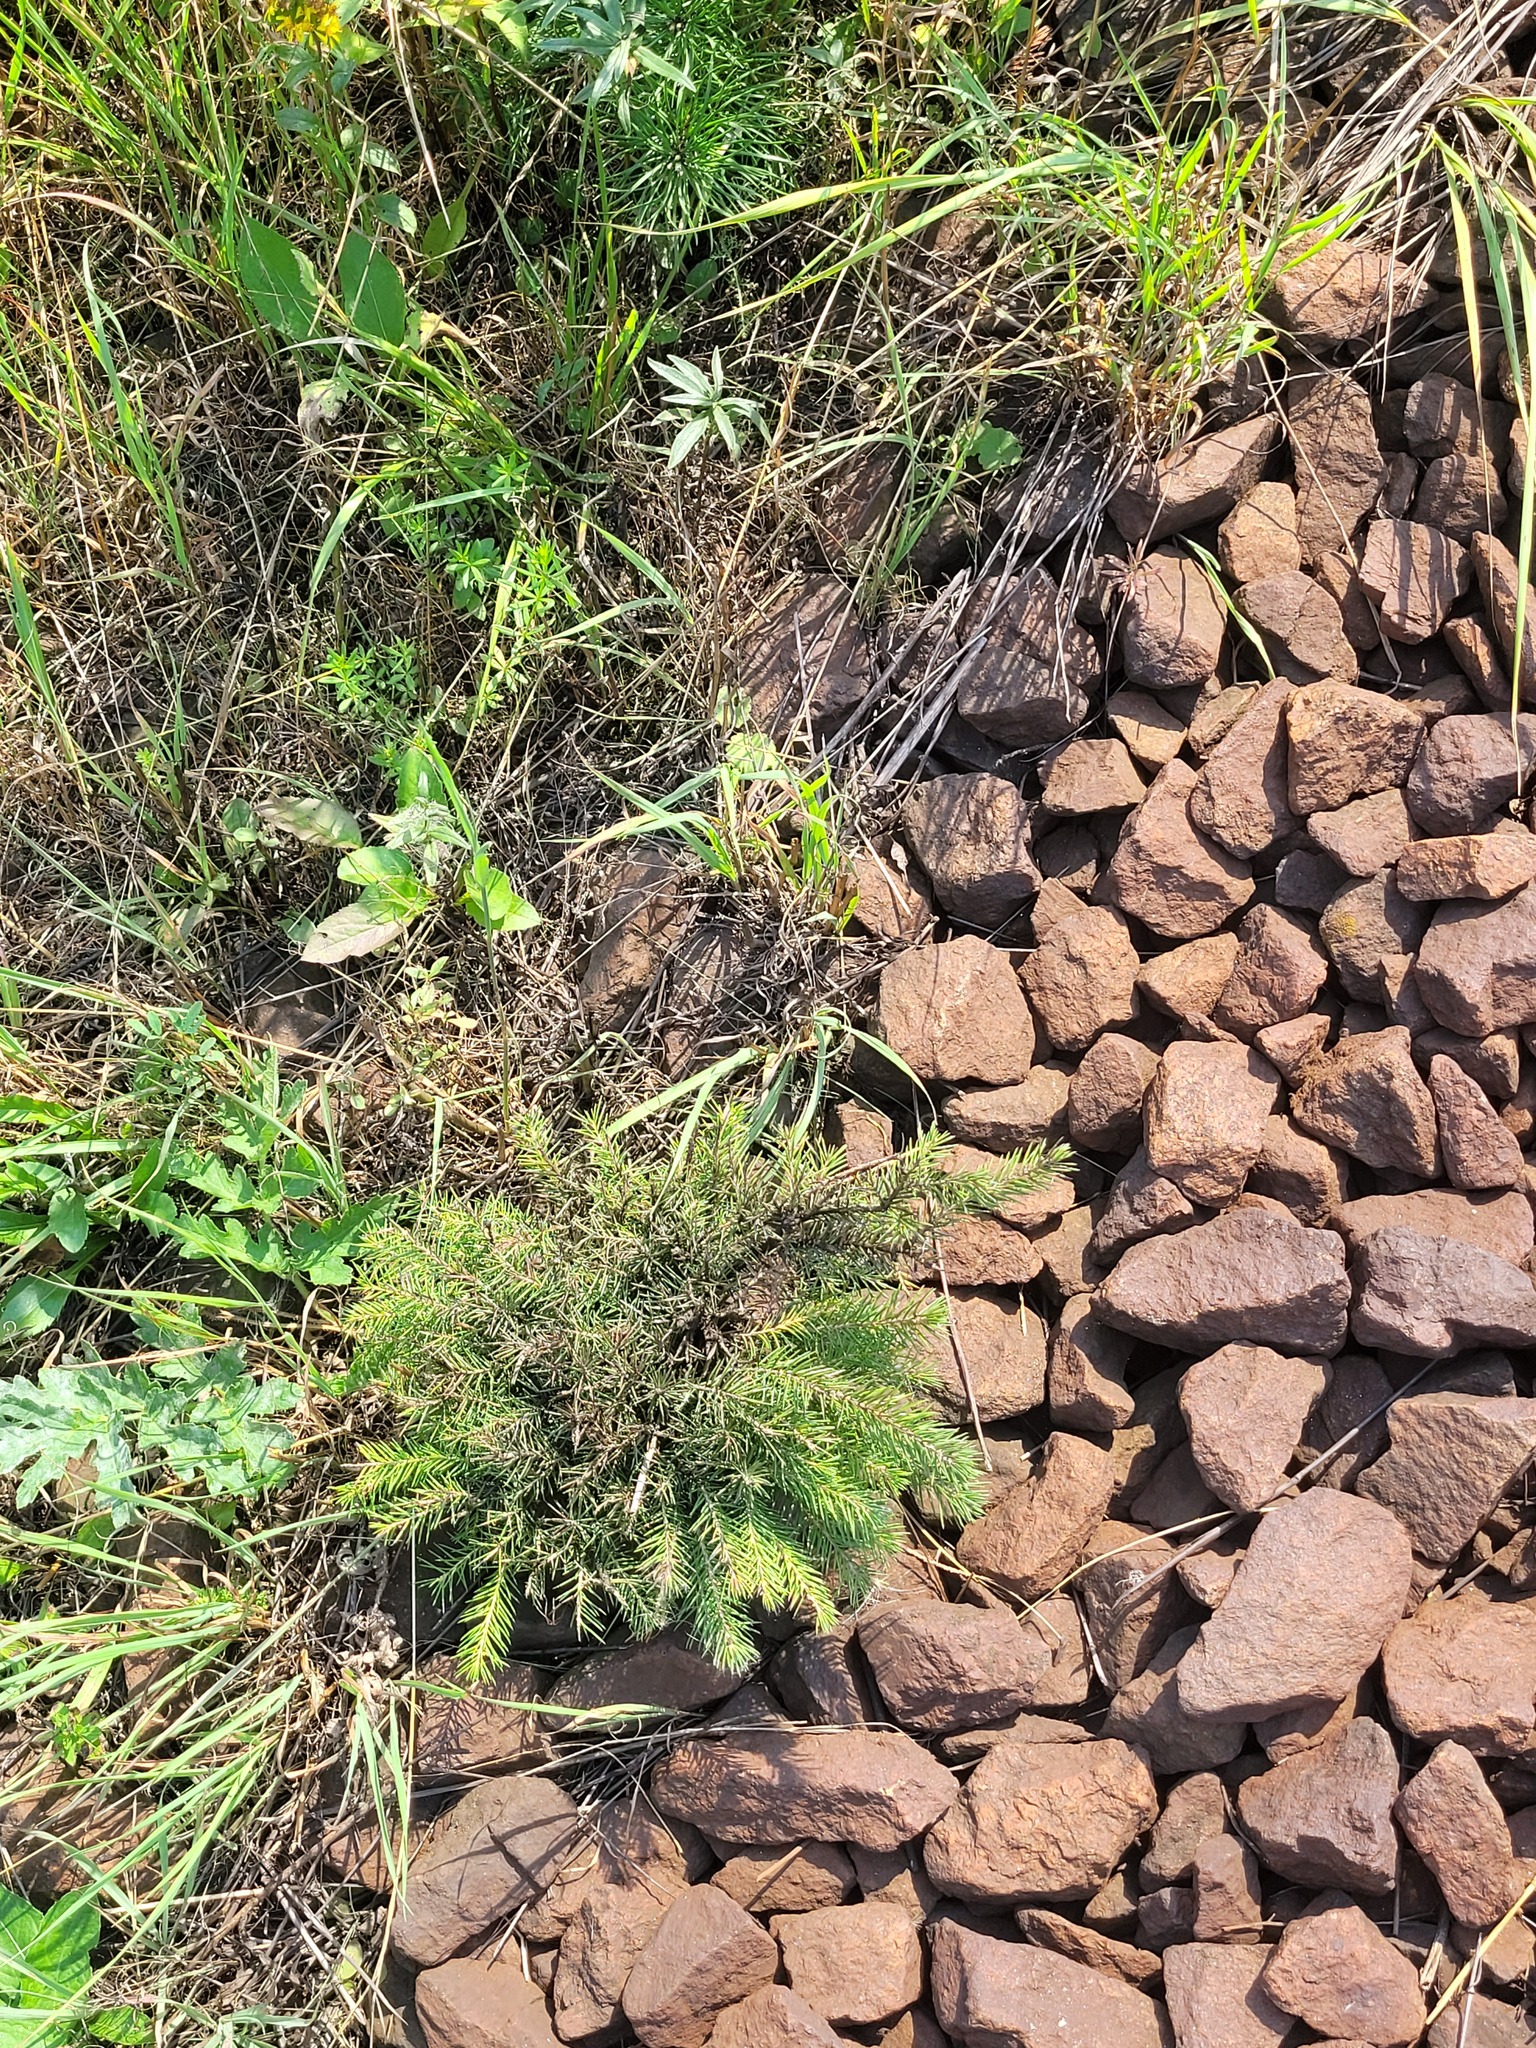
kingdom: Plantae
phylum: Tracheophyta
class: Pinopsida
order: Pinales
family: Pinaceae
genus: Picea
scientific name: Picea abies
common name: Norway spruce
